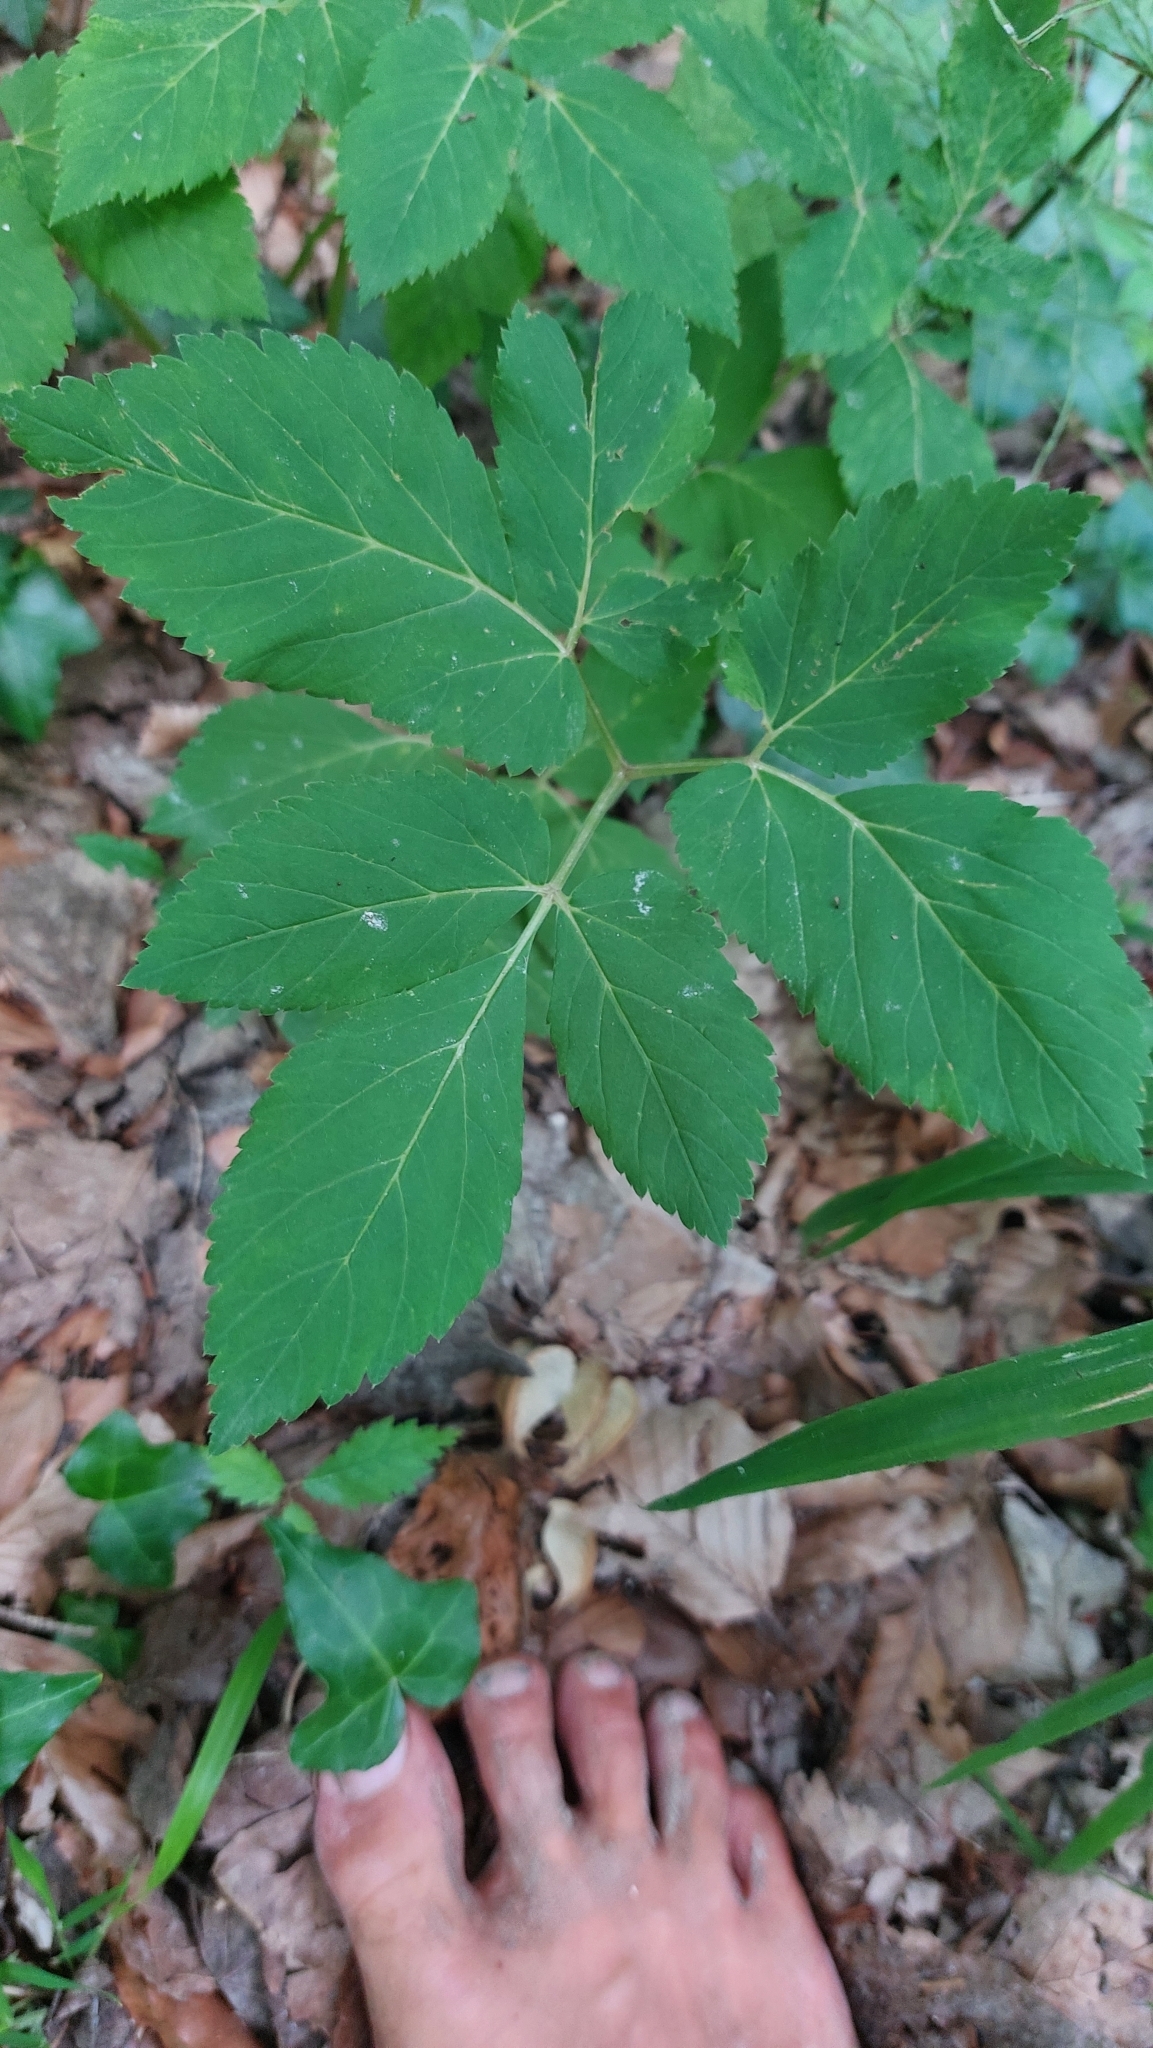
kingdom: Plantae
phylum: Tracheophyta
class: Magnoliopsida
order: Apiales
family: Apiaceae
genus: Aegopodium
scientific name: Aegopodium podagraria
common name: Ground-elder
